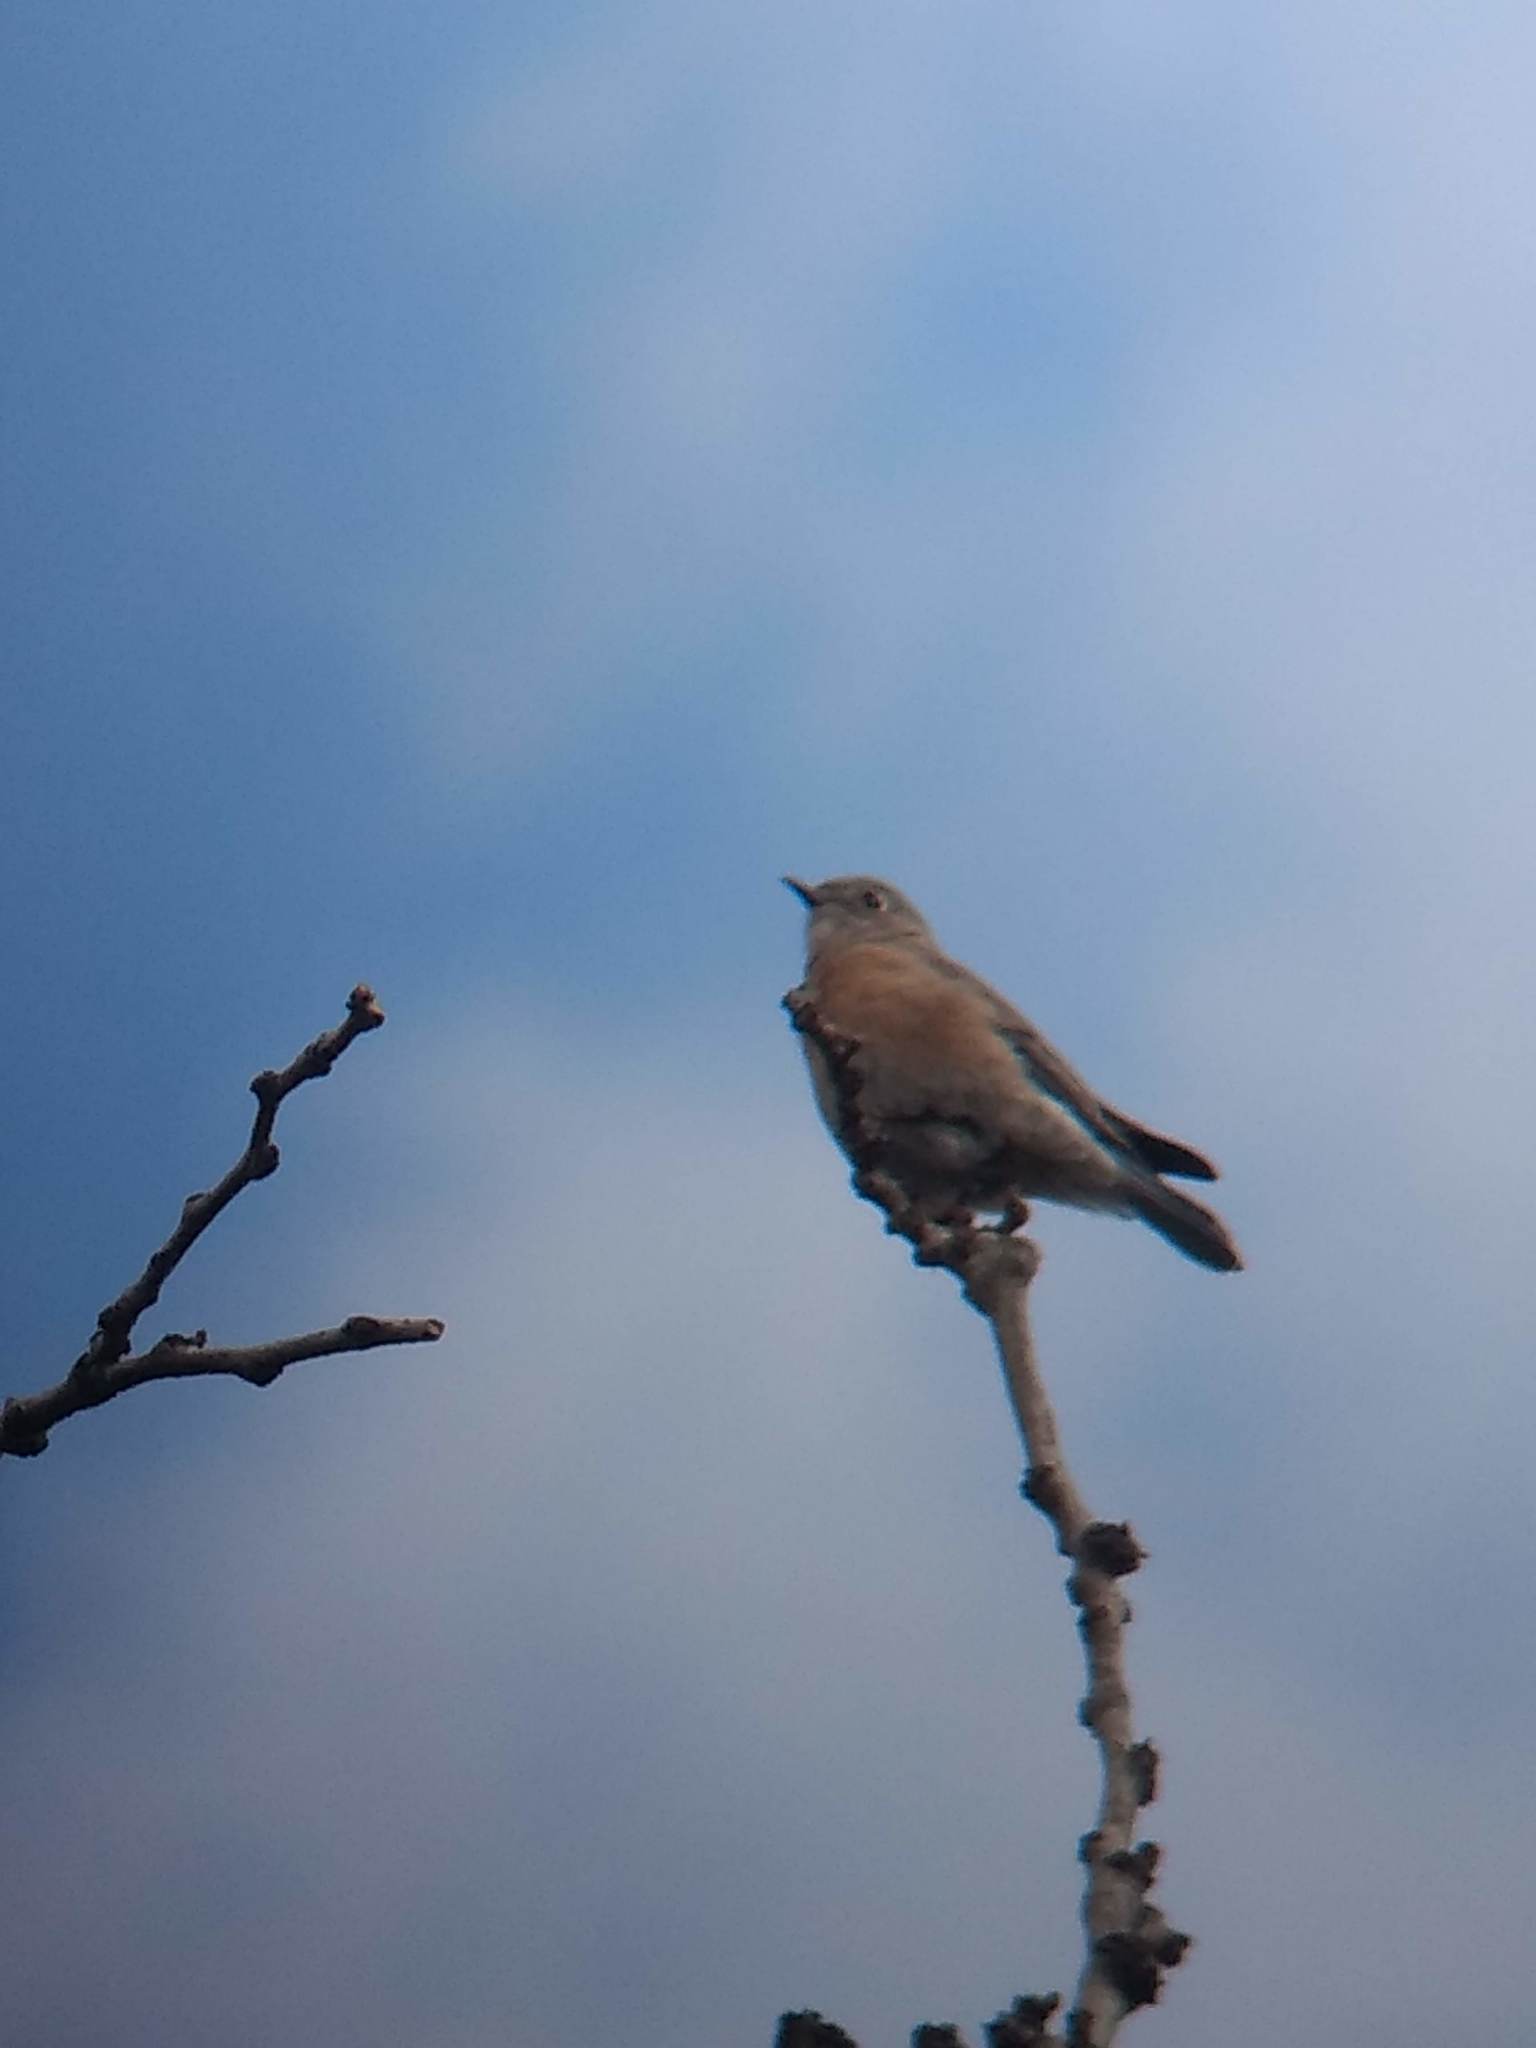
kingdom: Animalia
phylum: Chordata
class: Aves
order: Passeriformes
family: Turdidae
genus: Sialia
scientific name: Sialia mexicana
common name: Western bluebird
